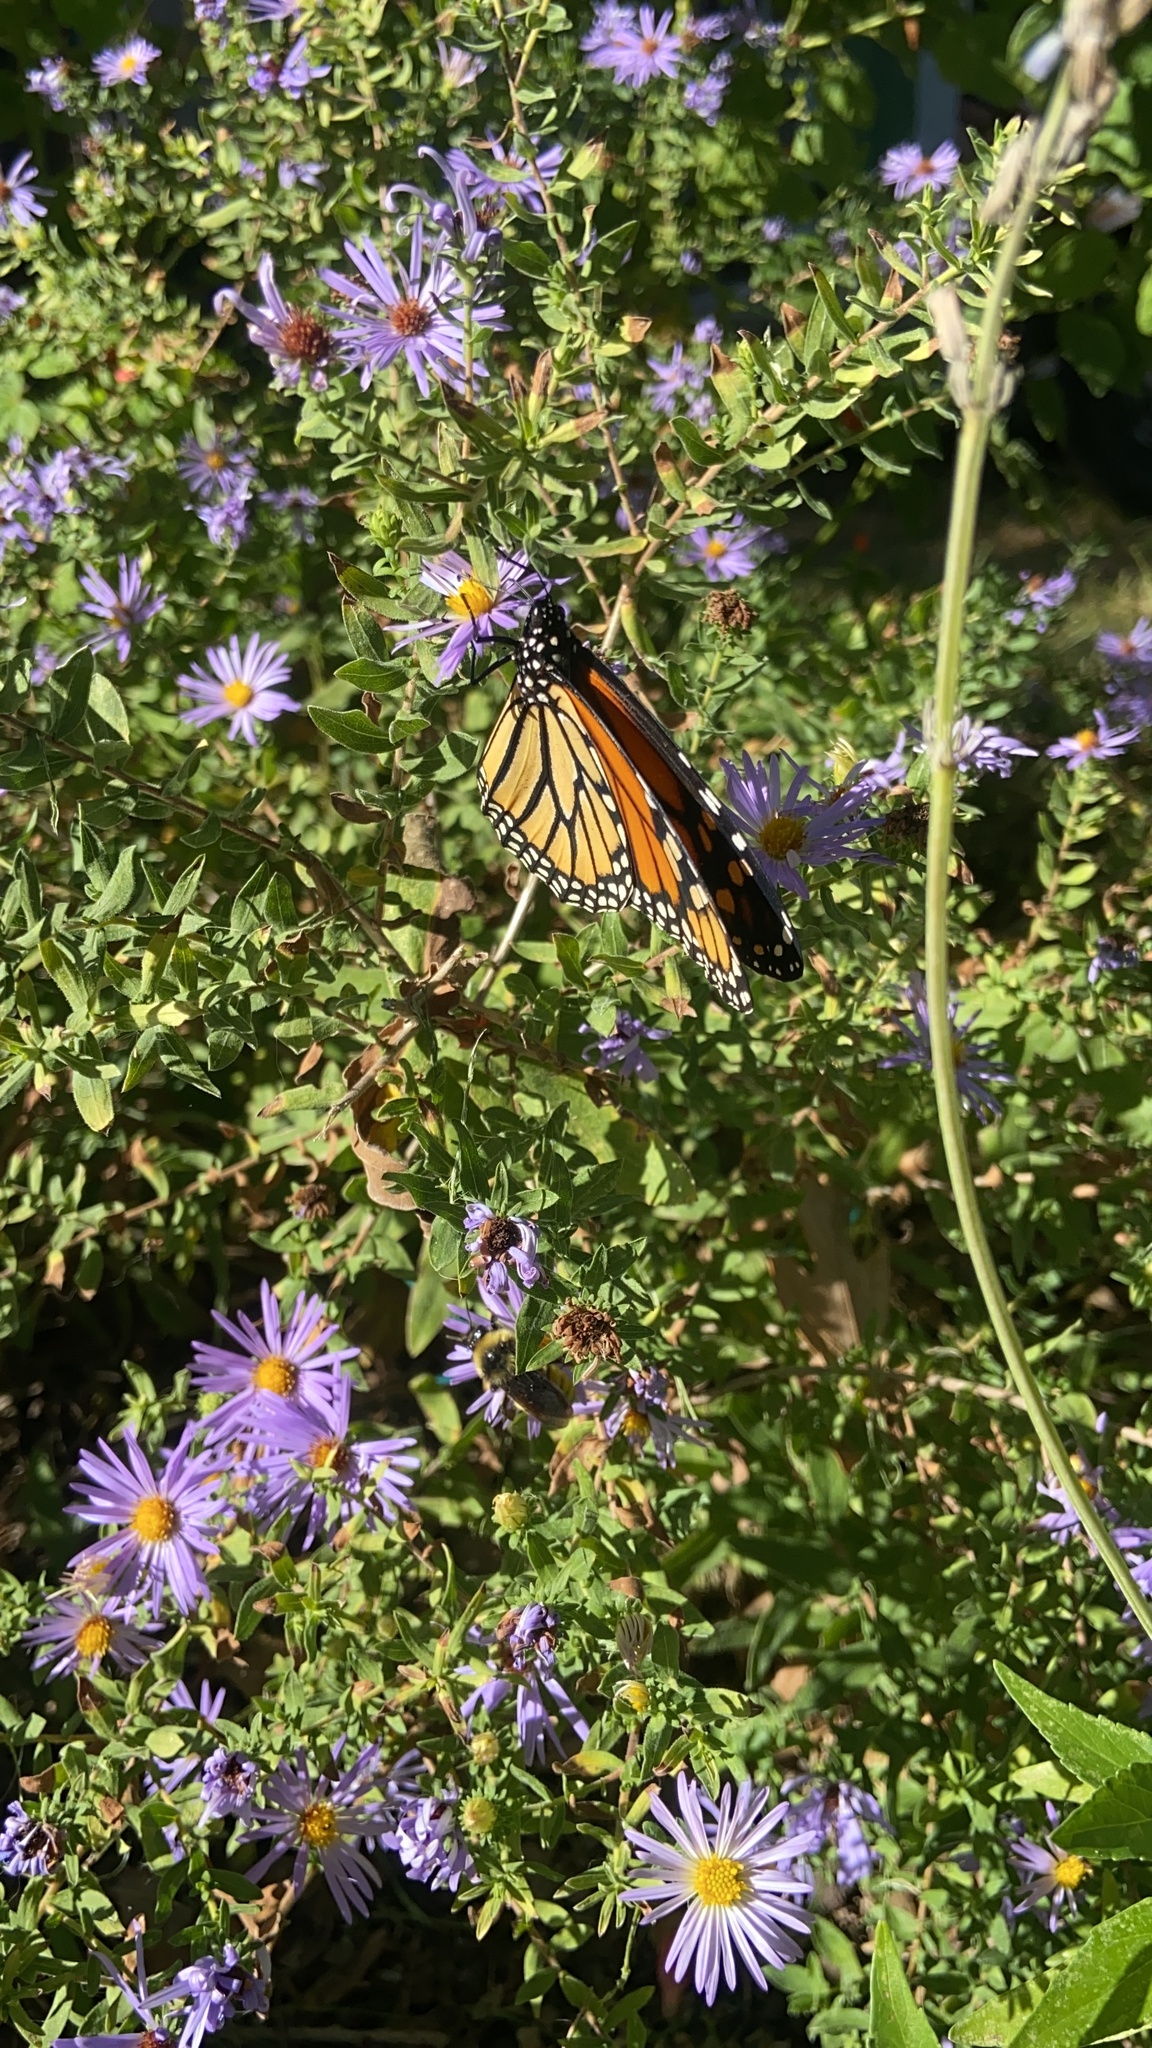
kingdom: Animalia
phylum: Arthropoda
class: Insecta
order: Lepidoptera
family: Nymphalidae
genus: Danaus
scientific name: Danaus plexippus
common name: Monarch
